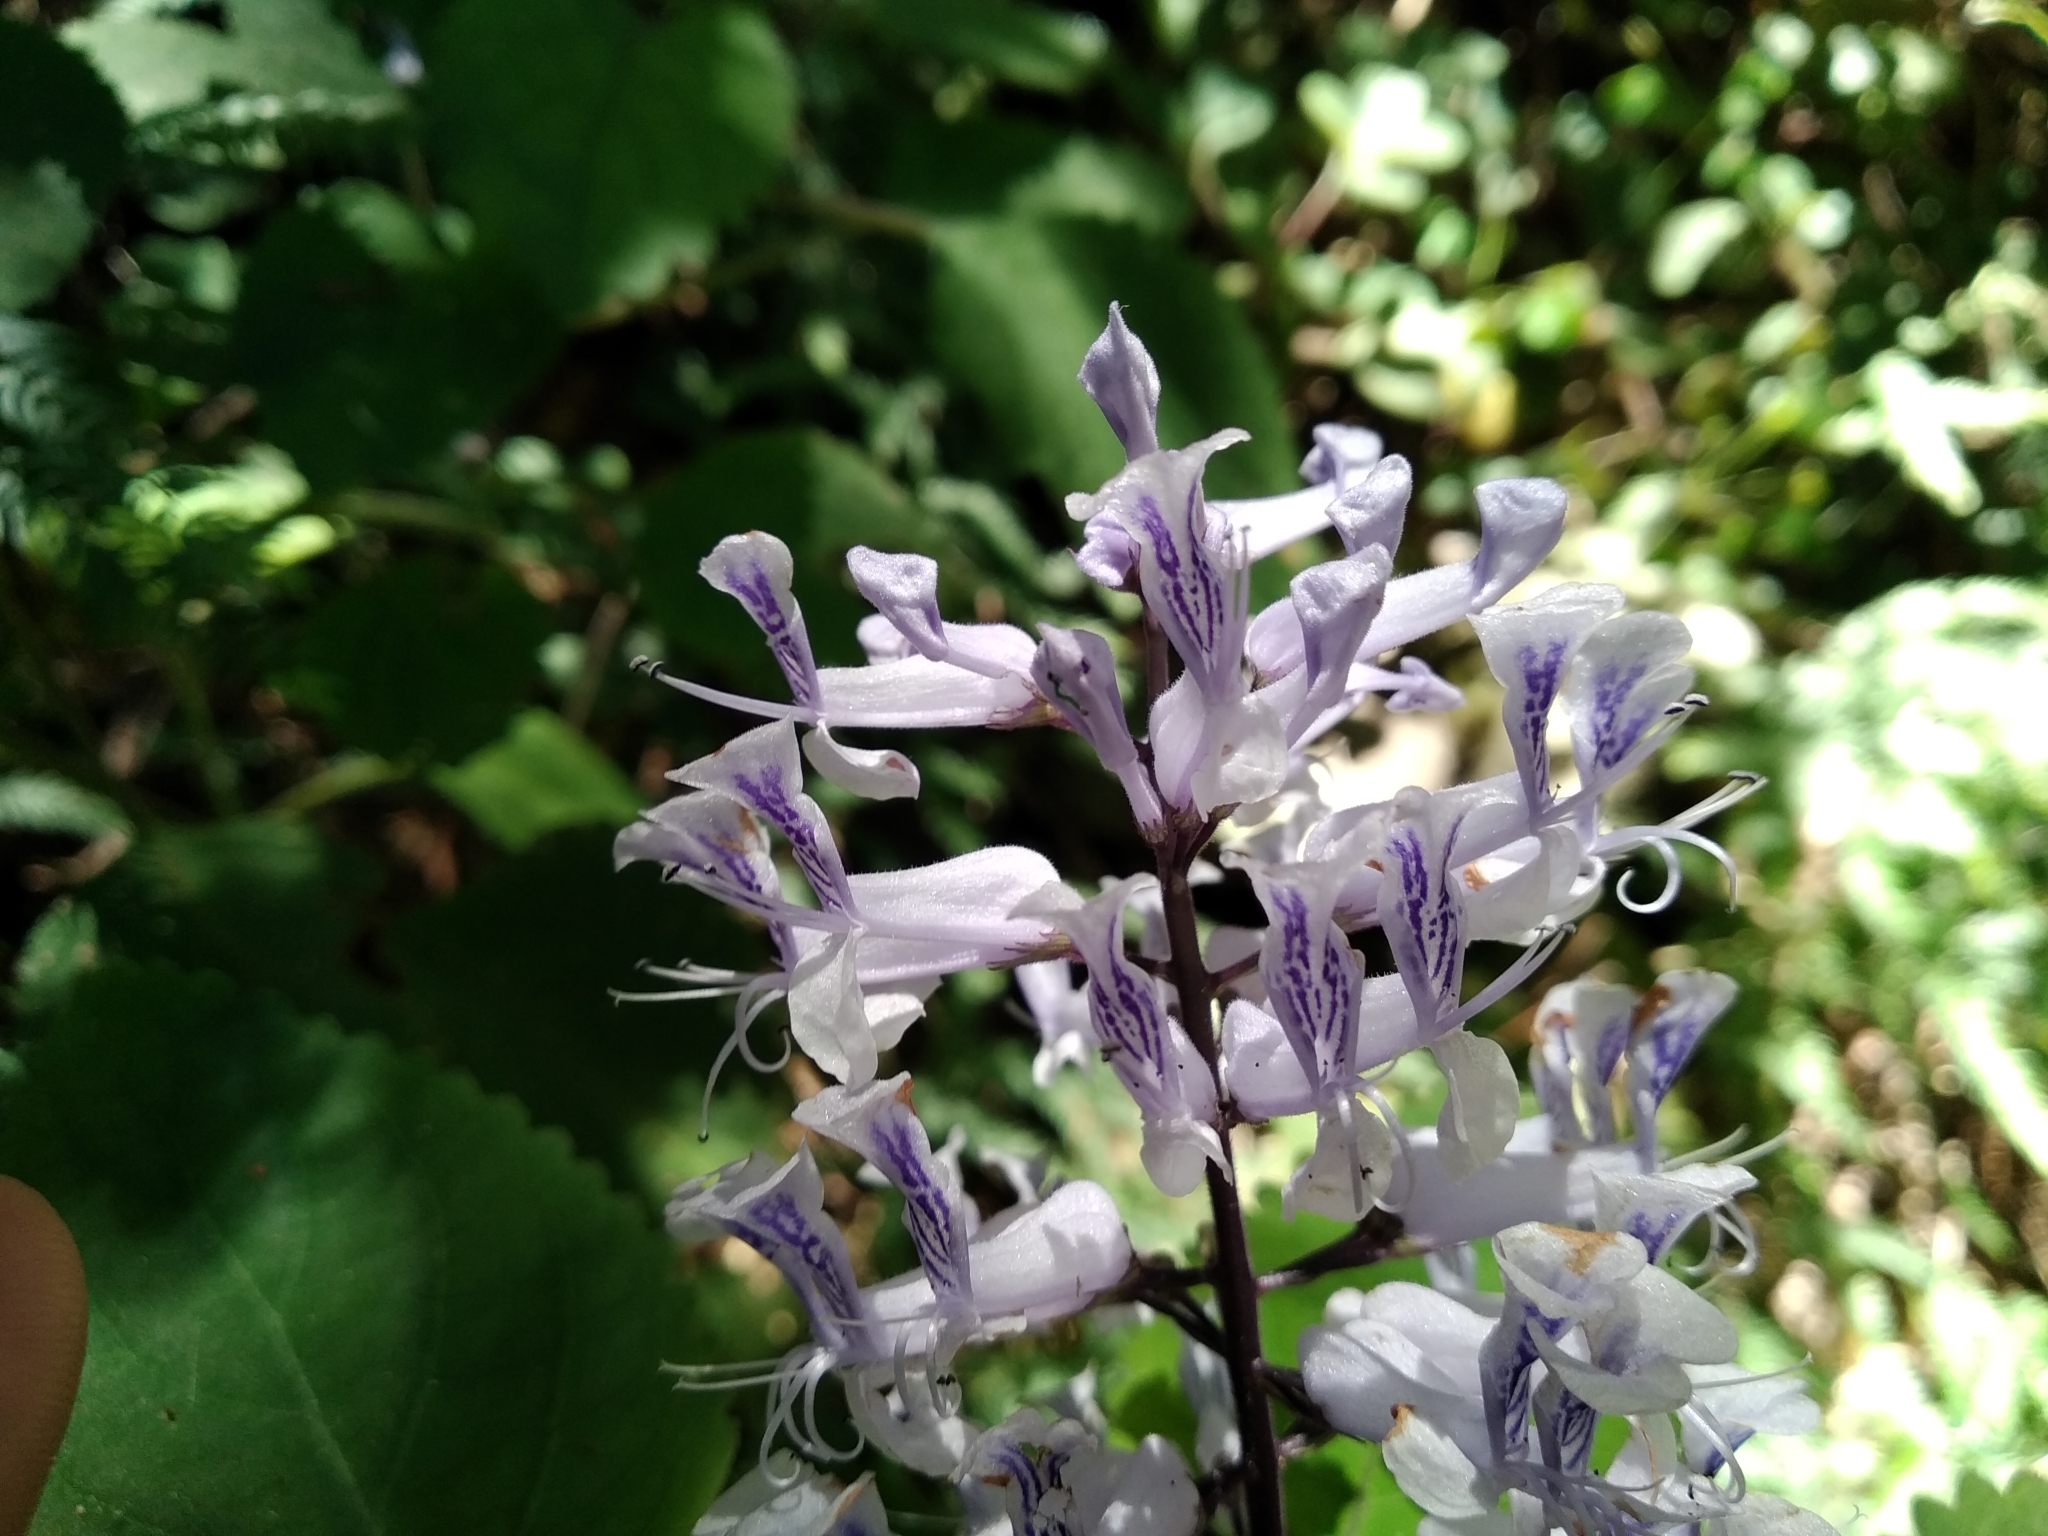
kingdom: Plantae
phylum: Tracheophyta
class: Magnoliopsida
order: Lamiales
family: Lamiaceae
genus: Plectranthus
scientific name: Plectranthus zuluensis
